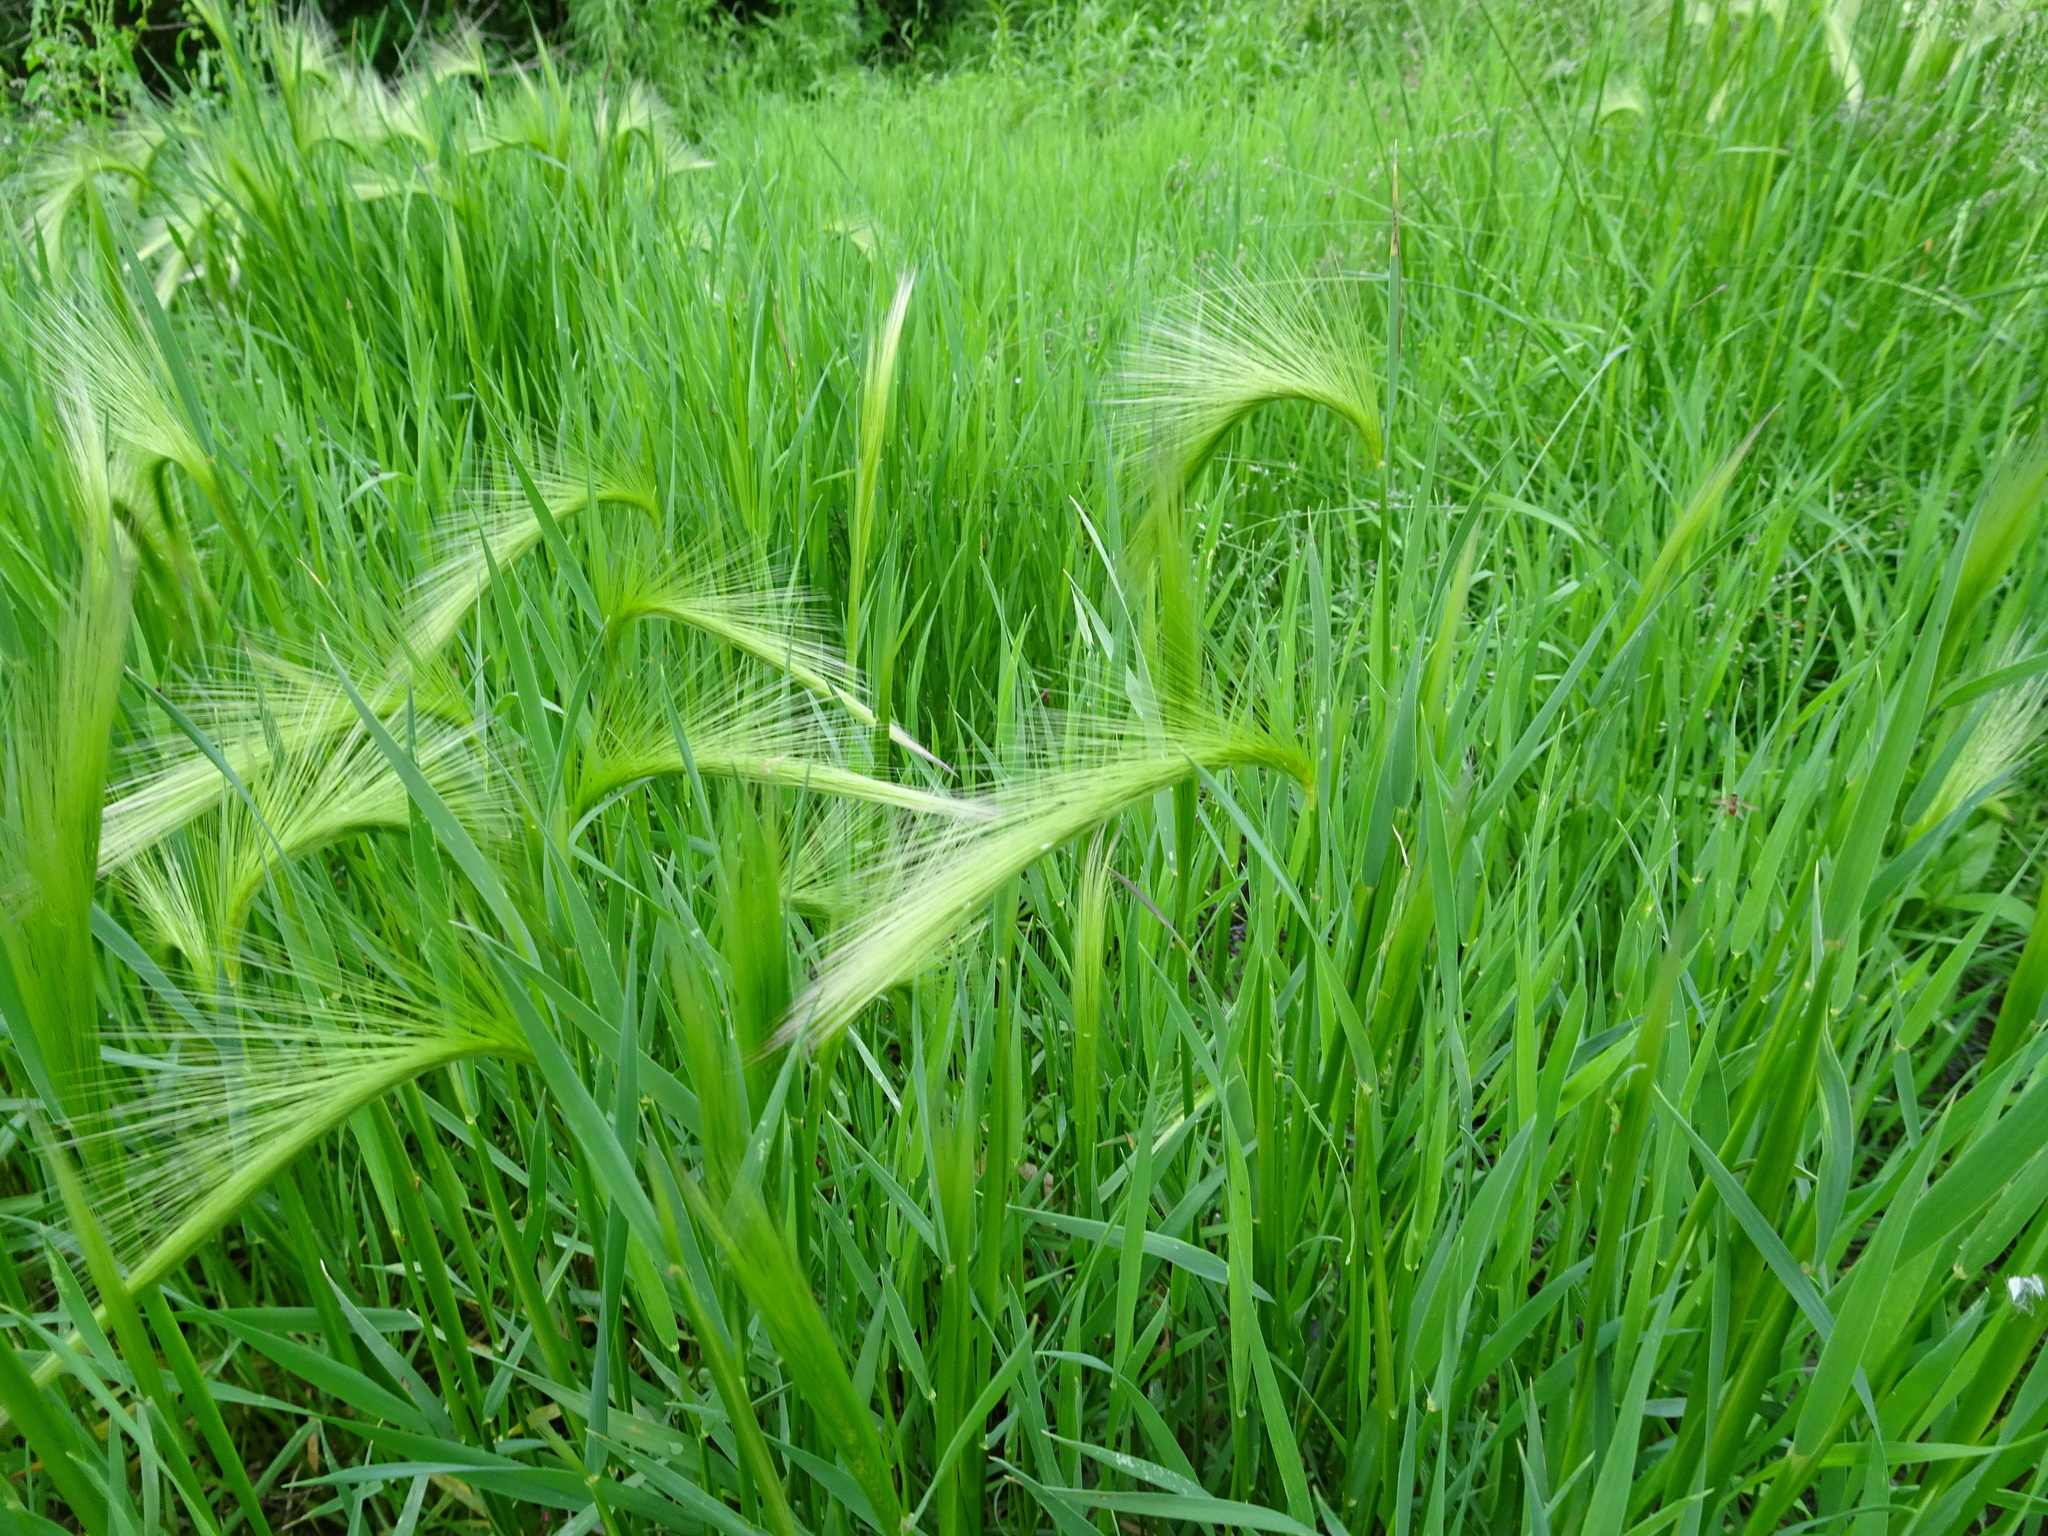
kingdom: Plantae
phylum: Tracheophyta
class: Liliopsida
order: Poales
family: Poaceae
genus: Hordeum
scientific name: Hordeum jubatum
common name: Foxtail barley
